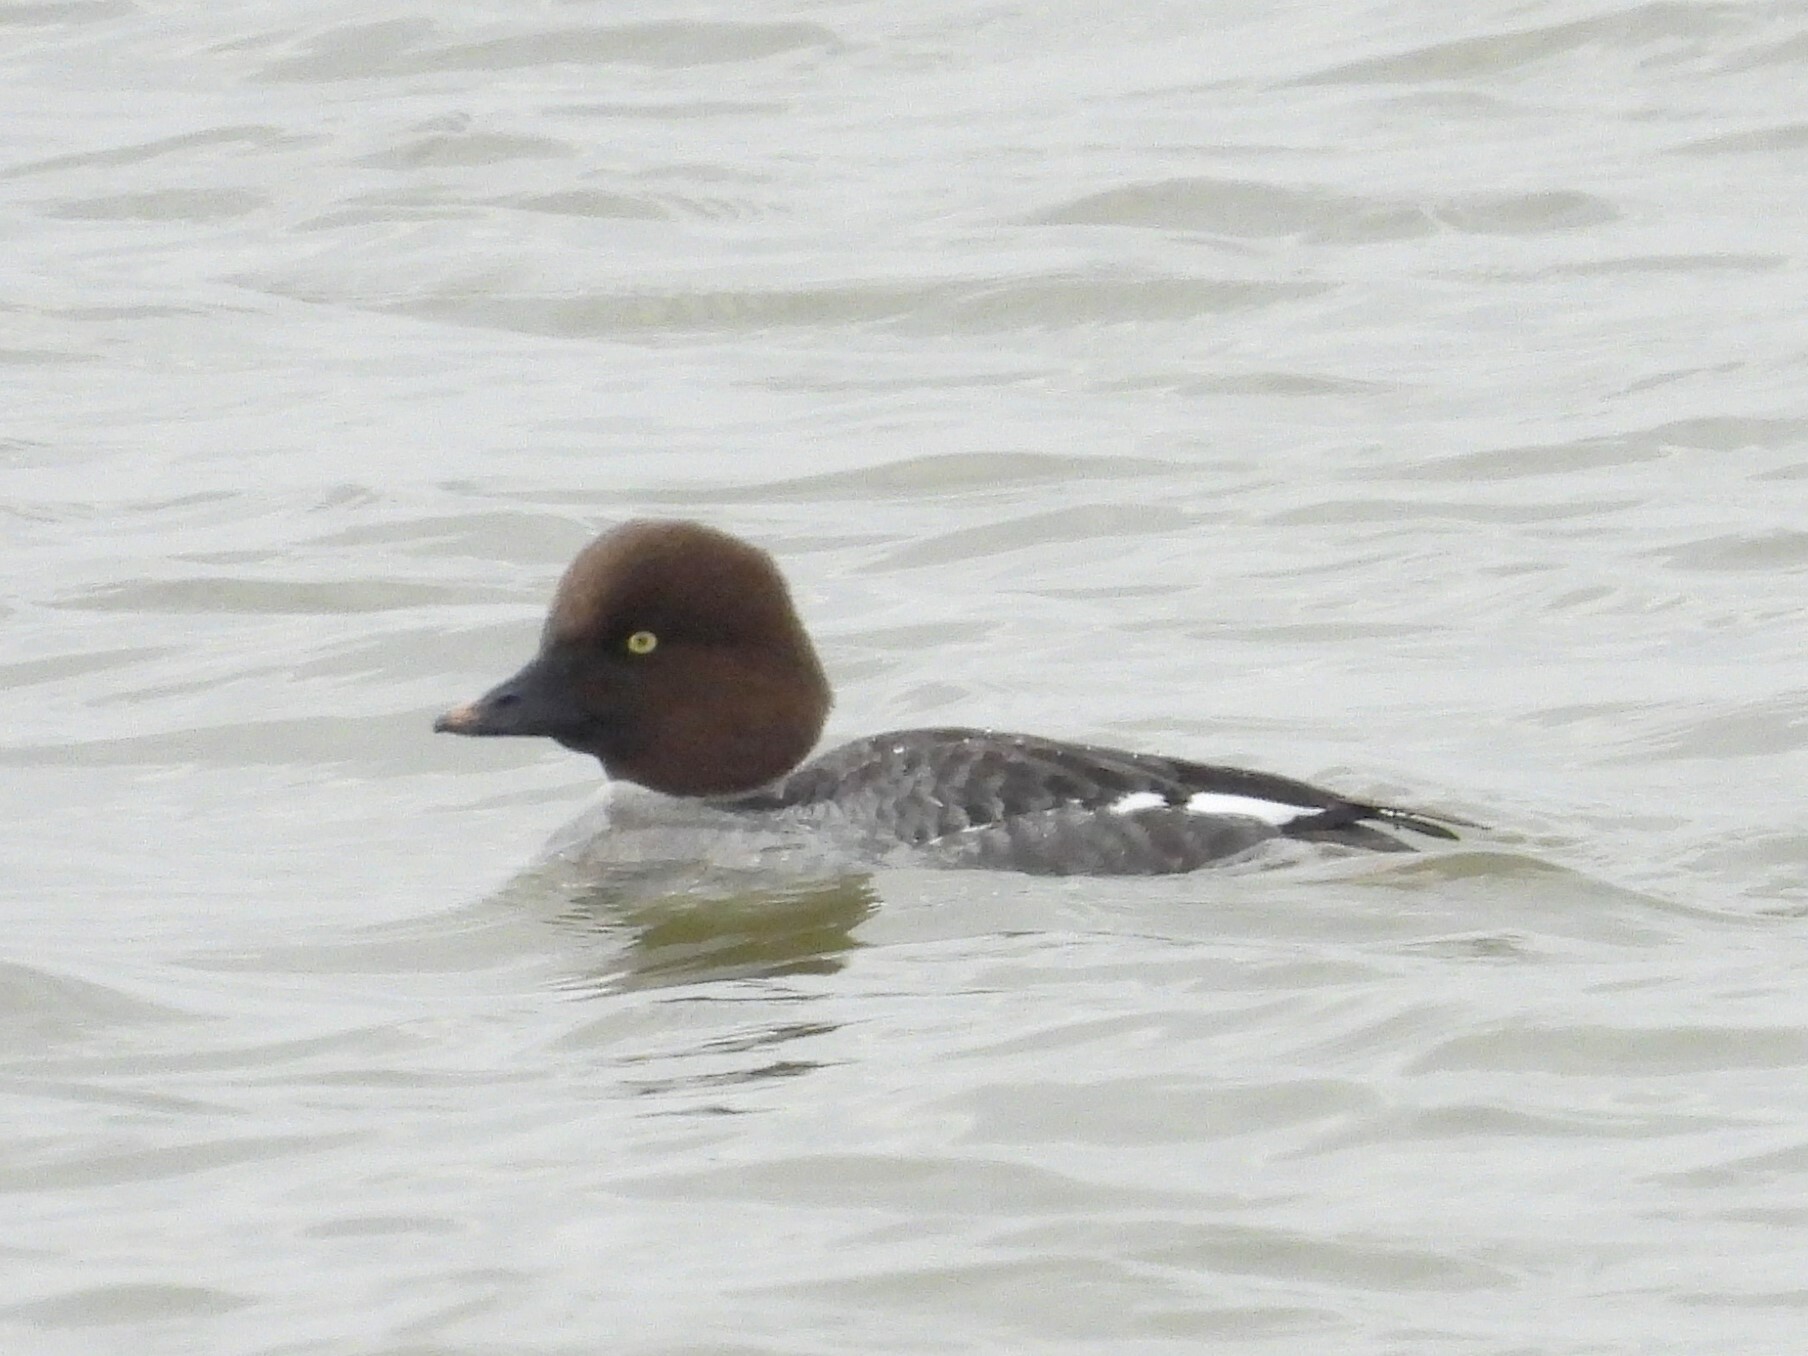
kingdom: Animalia
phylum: Chordata
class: Aves
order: Anseriformes
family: Anatidae
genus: Bucephala
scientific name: Bucephala clangula
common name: Common goldeneye
